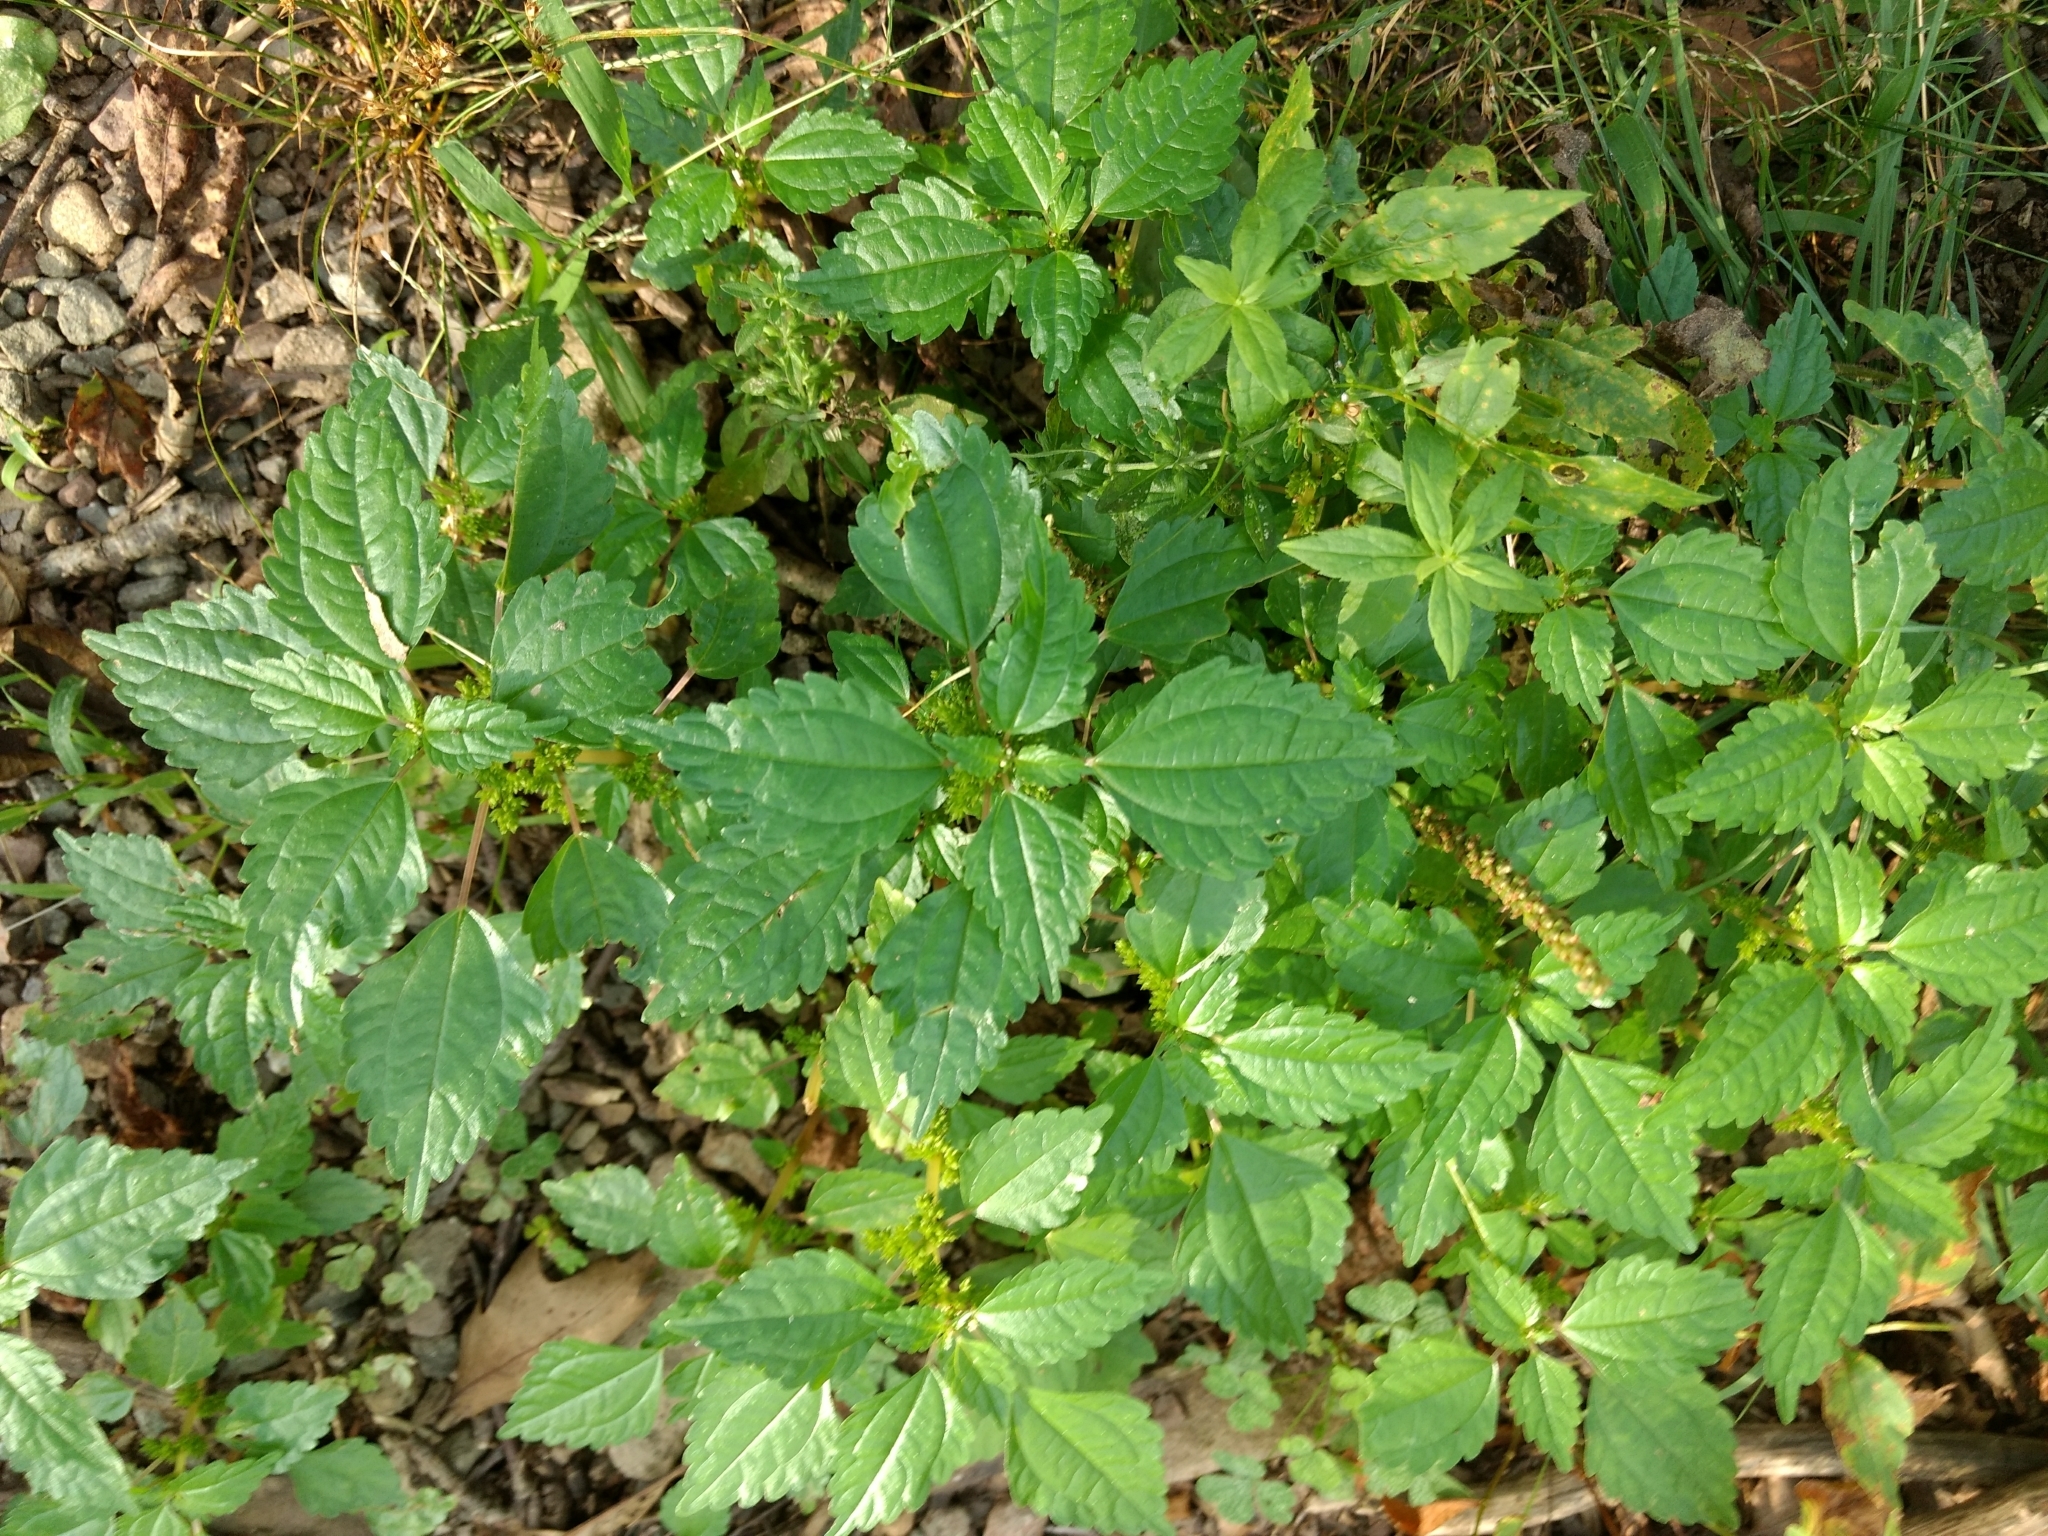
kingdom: Plantae
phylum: Tracheophyta
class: Magnoliopsida
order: Rosales
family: Urticaceae
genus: Pilea
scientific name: Pilea pumila
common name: Clearweed
